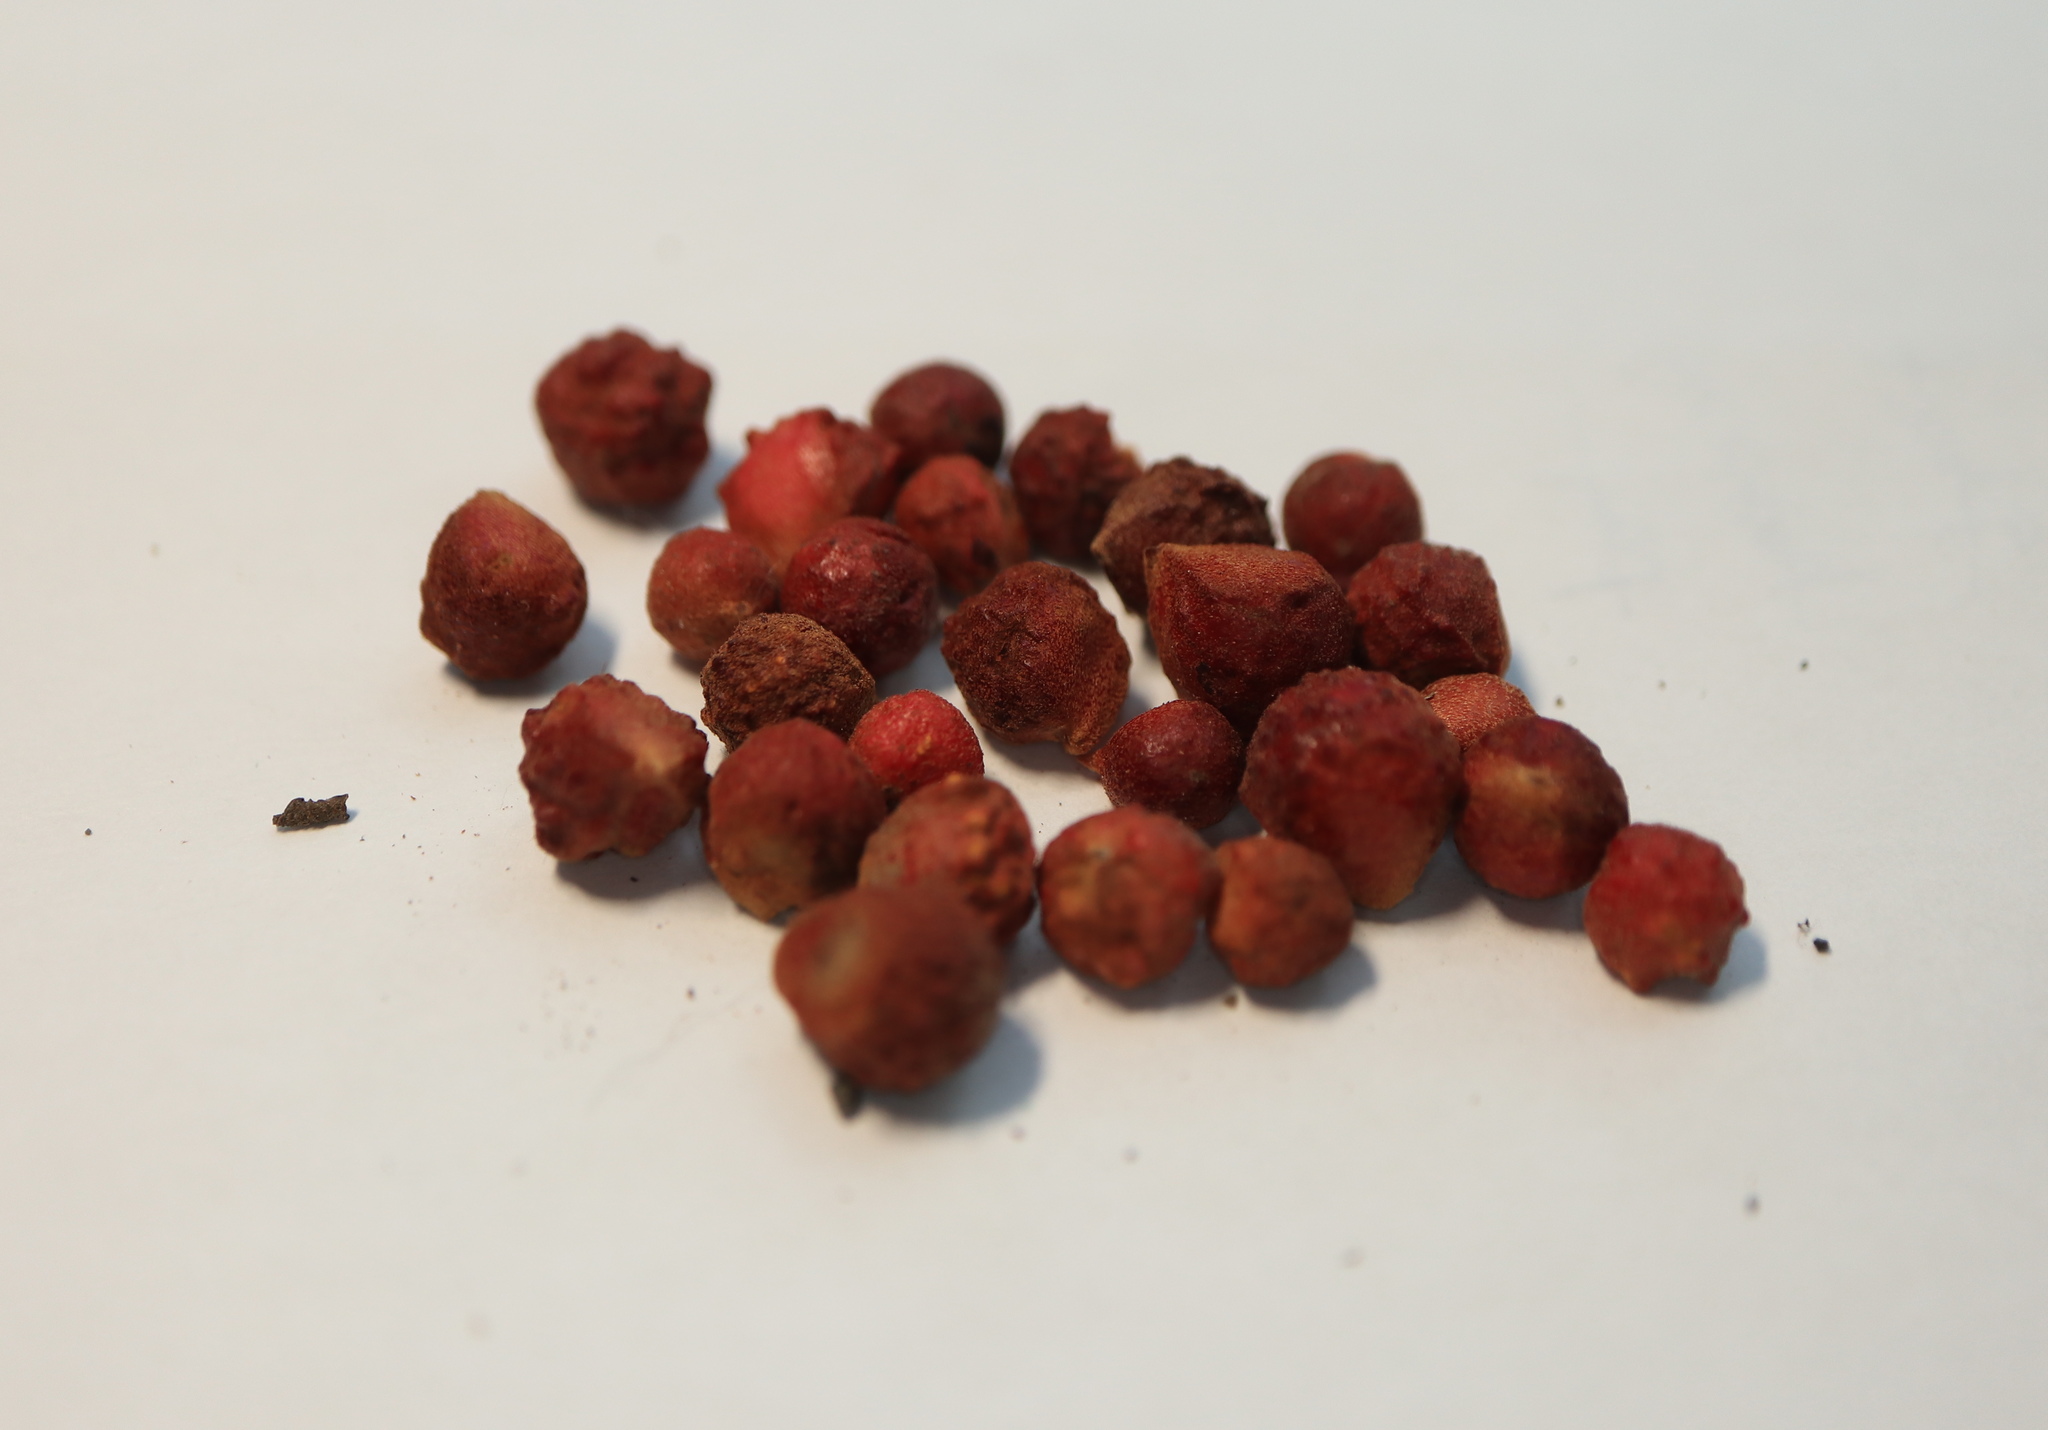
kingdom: Animalia
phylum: Arthropoda
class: Insecta
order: Hymenoptera
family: Cynipidae
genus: Andricus
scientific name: Andricus
